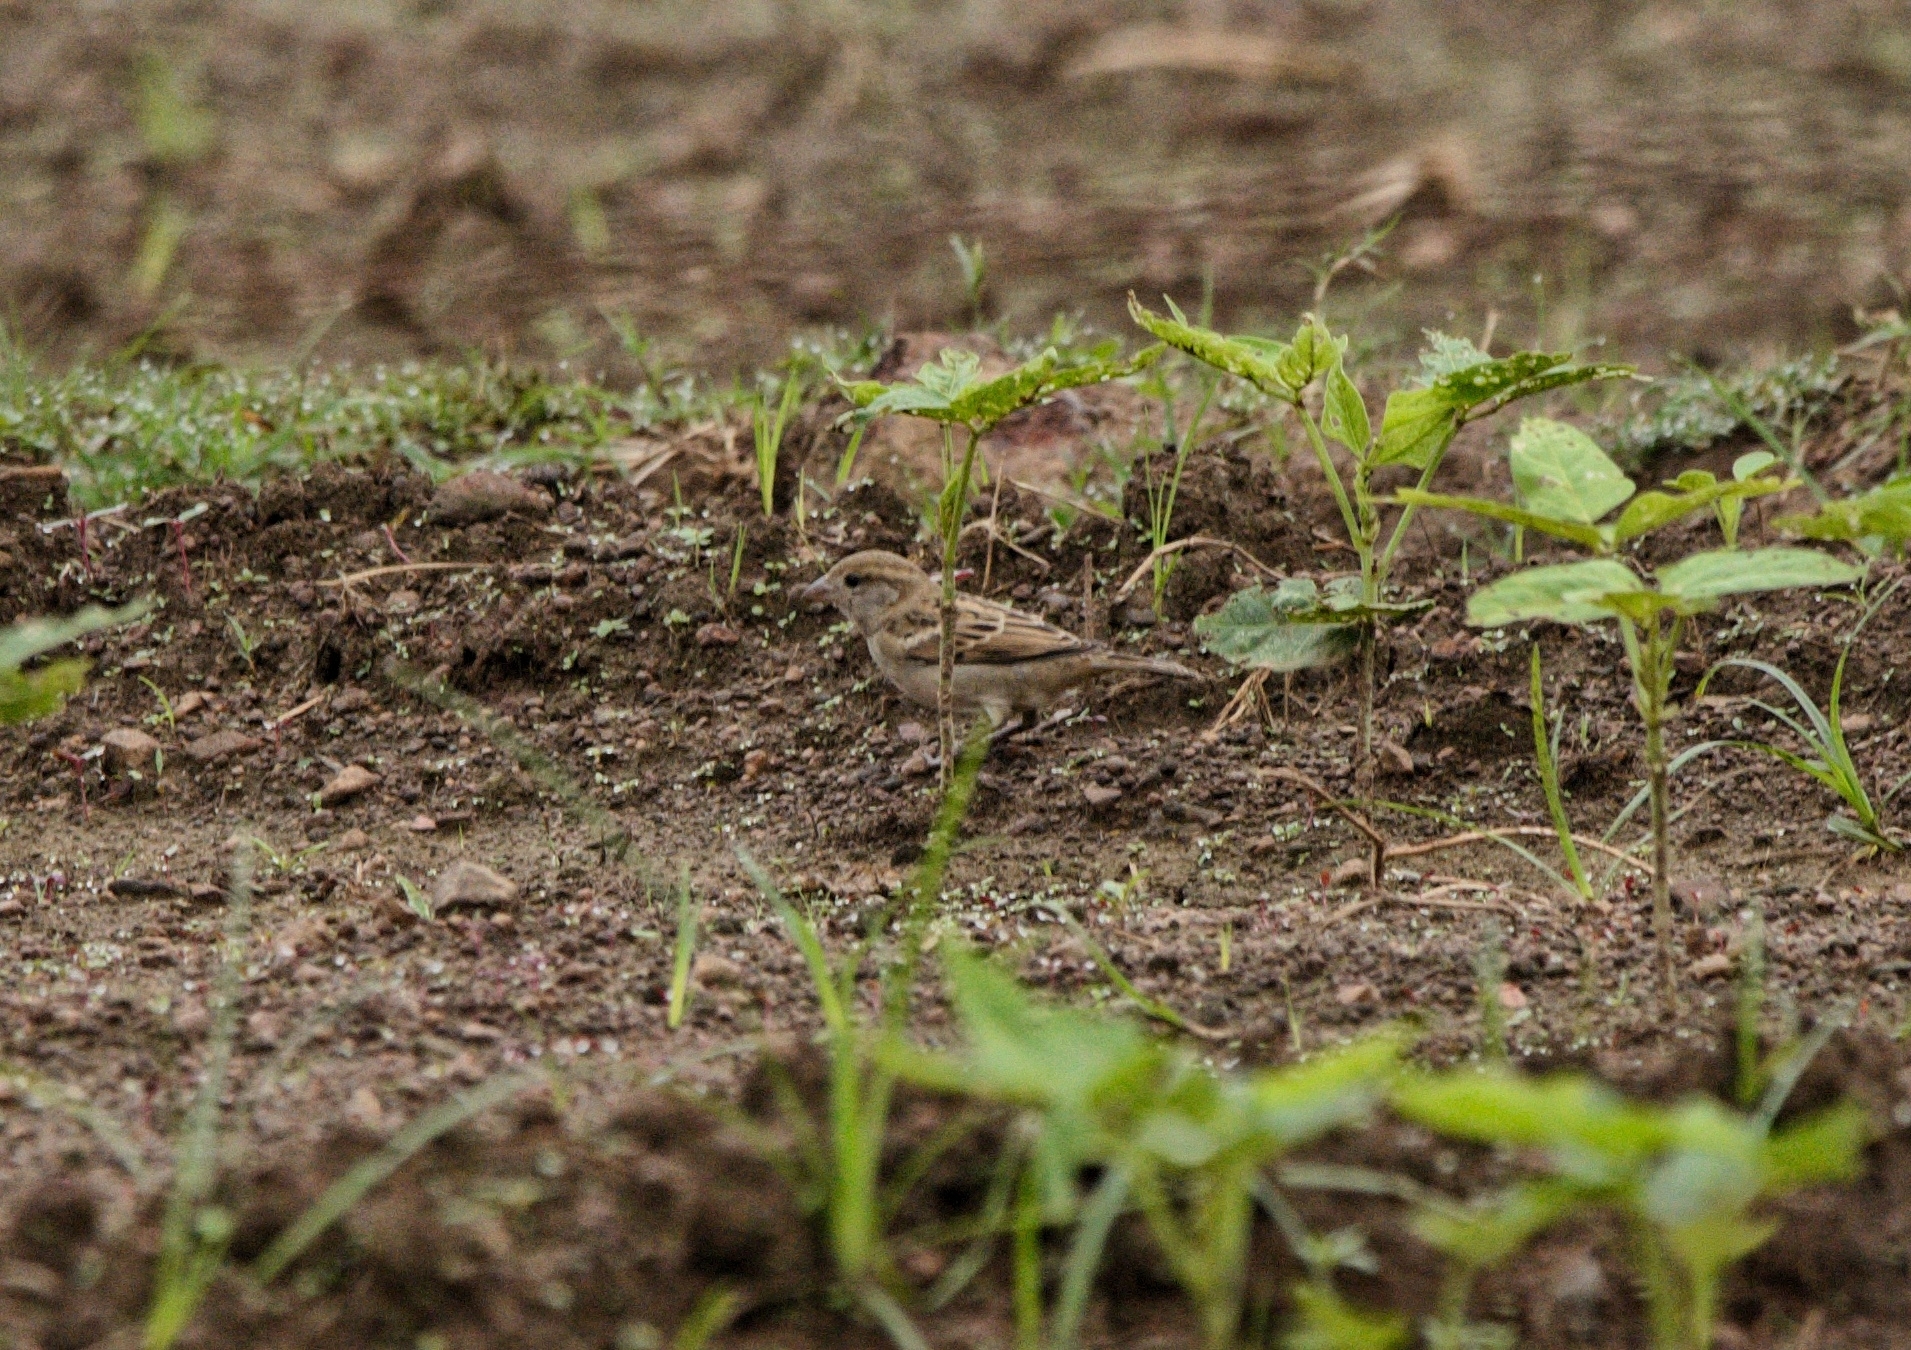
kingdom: Animalia
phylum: Chordata
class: Aves
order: Passeriformes
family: Passeridae
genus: Passer
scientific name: Passer domesticus
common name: House sparrow
